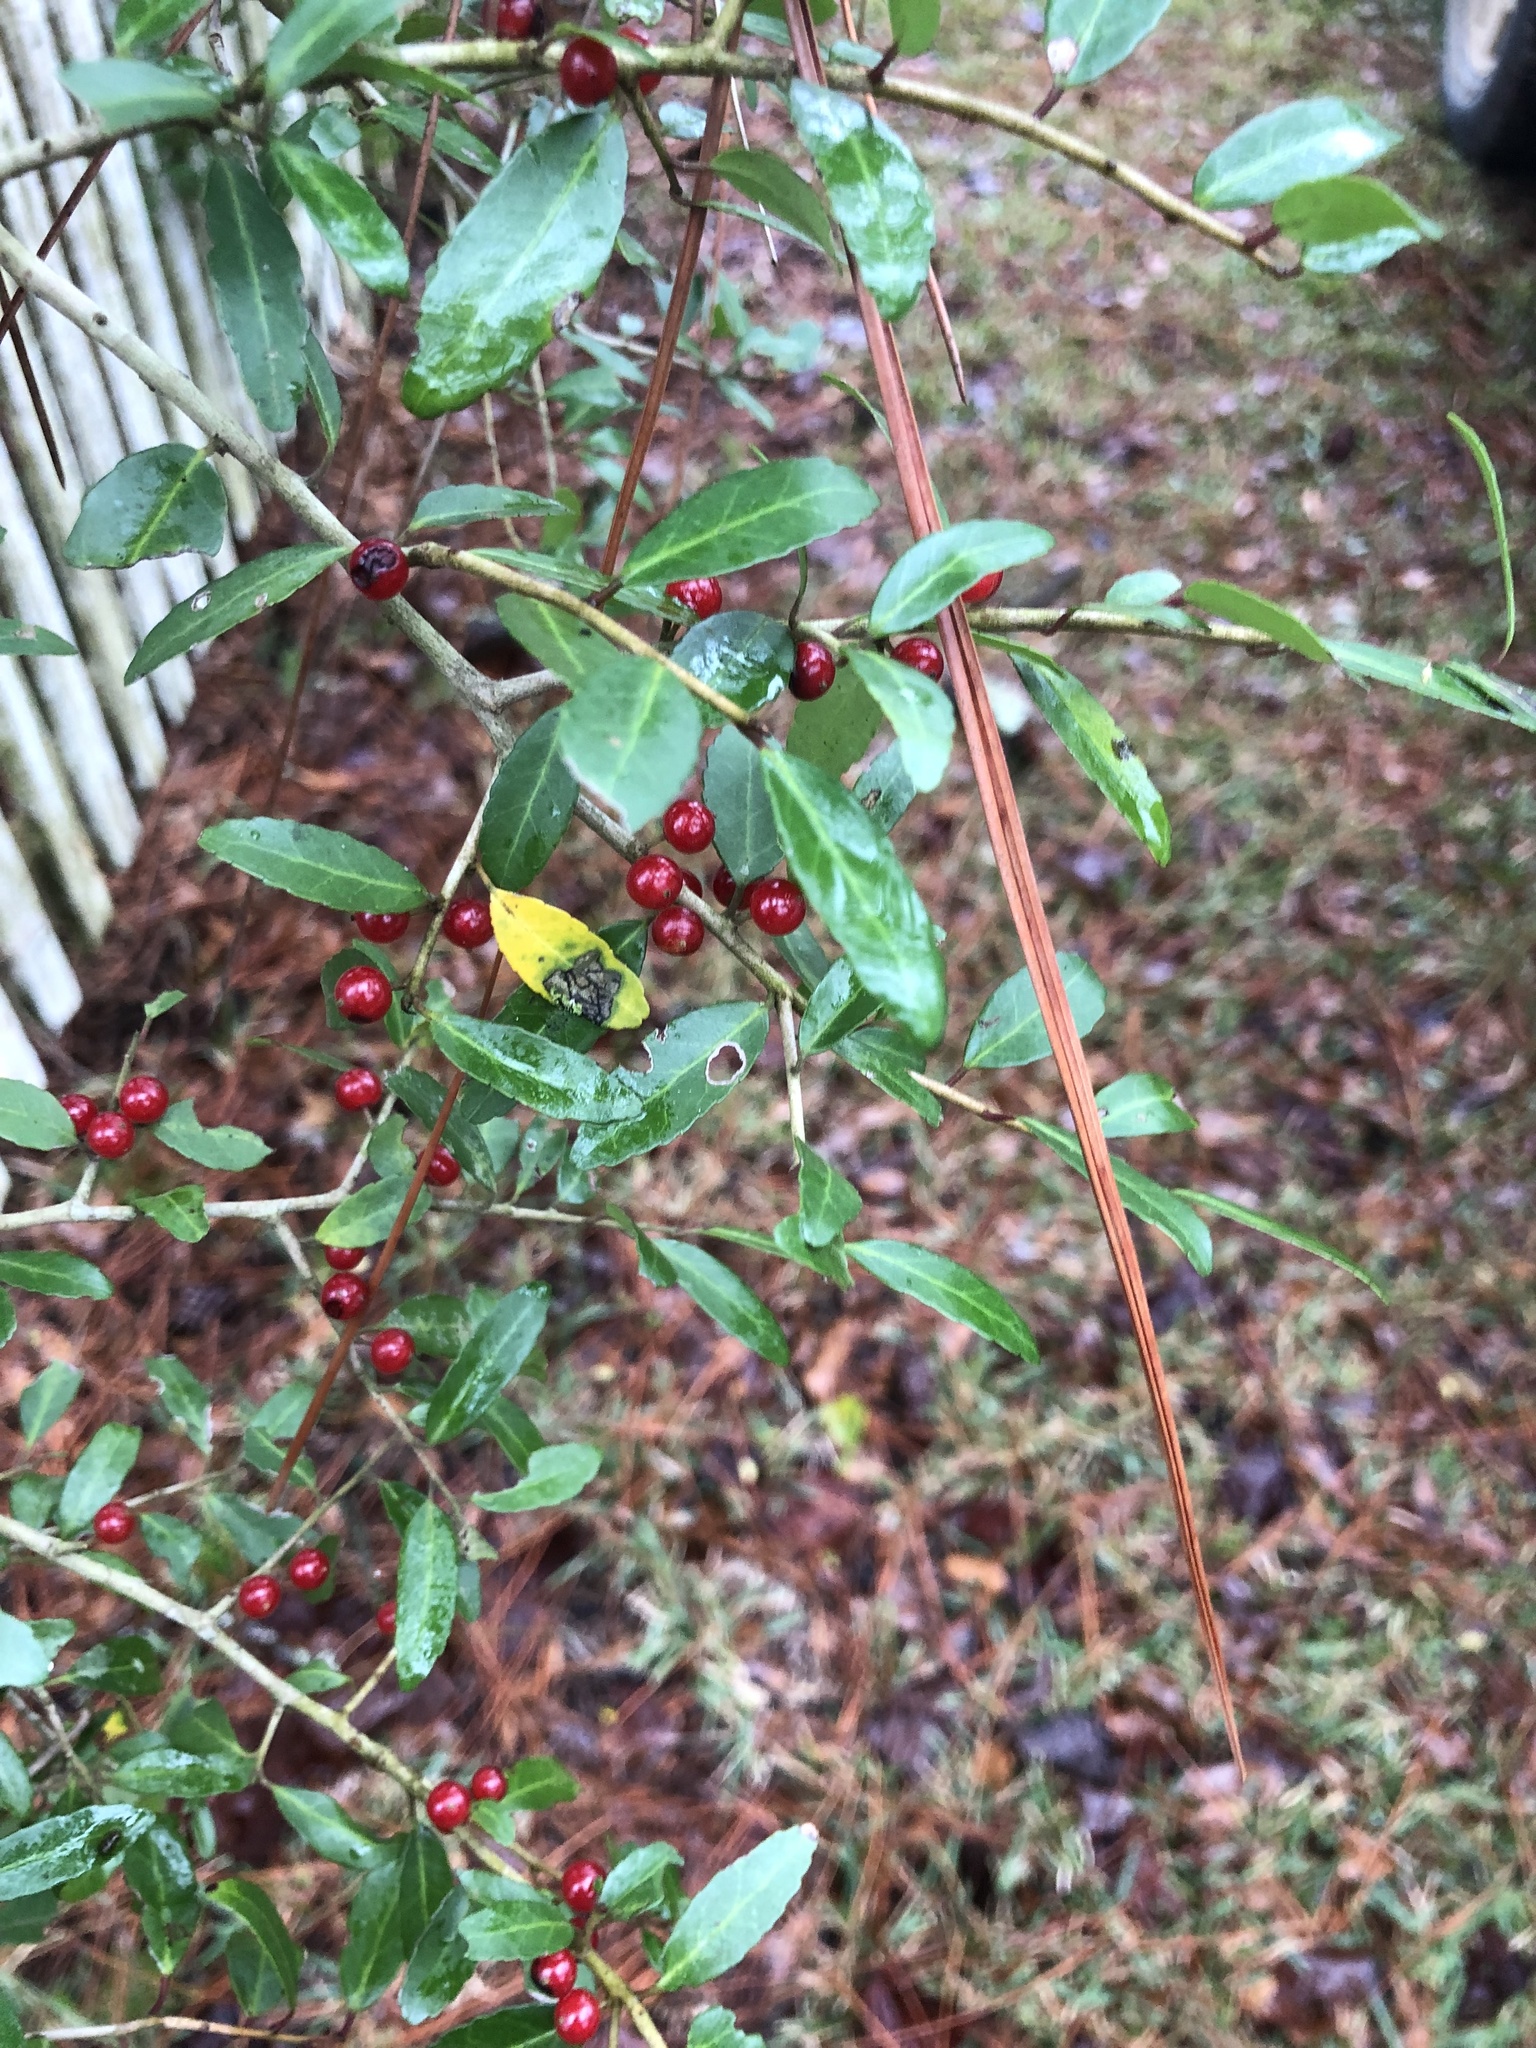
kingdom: Plantae
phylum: Tracheophyta
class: Magnoliopsida
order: Aquifoliales
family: Aquifoliaceae
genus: Ilex
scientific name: Ilex vomitoria
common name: Yaupon holly
